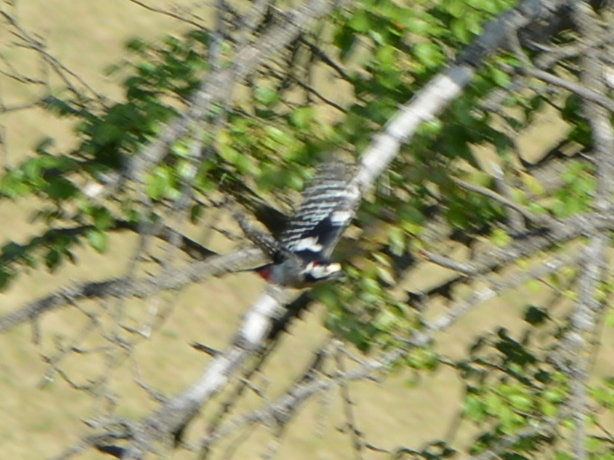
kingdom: Animalia
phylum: Chordata
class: Aves
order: Piciformes
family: Picidae
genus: Dendrocopos
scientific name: Dendrocopos major
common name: Great spotted woodpecker
